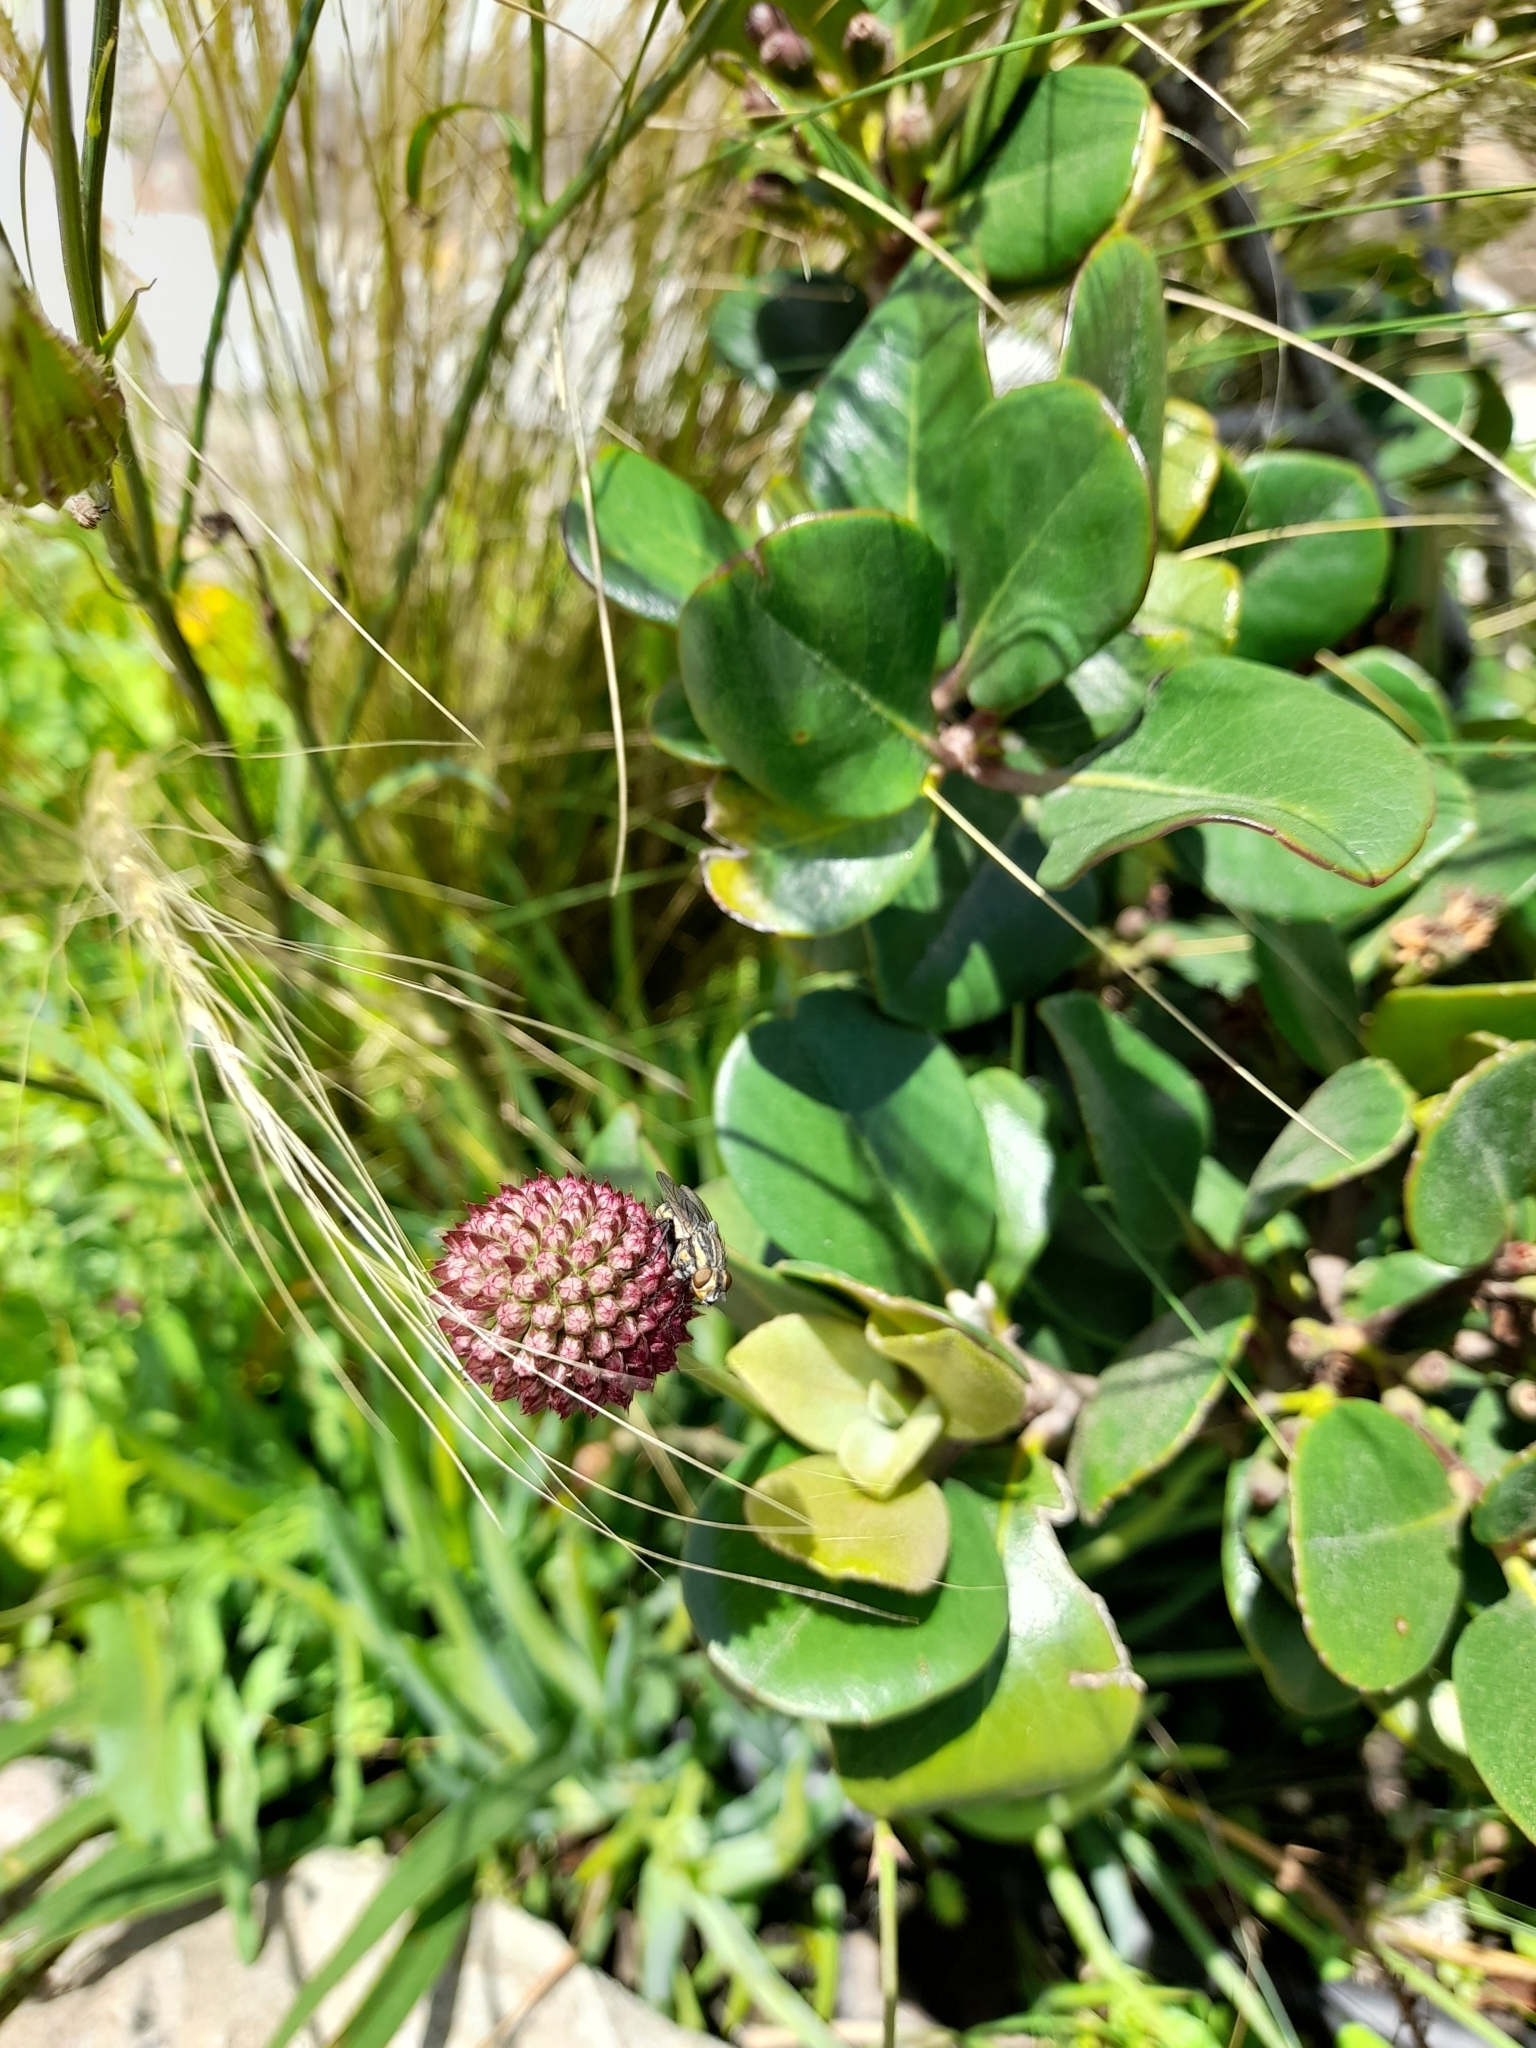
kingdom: Plantae
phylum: Tracheophyta
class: Magnoliopsida
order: Apiales
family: Apiaceae
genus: Eryngium
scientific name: Eryngium sanguisorba
